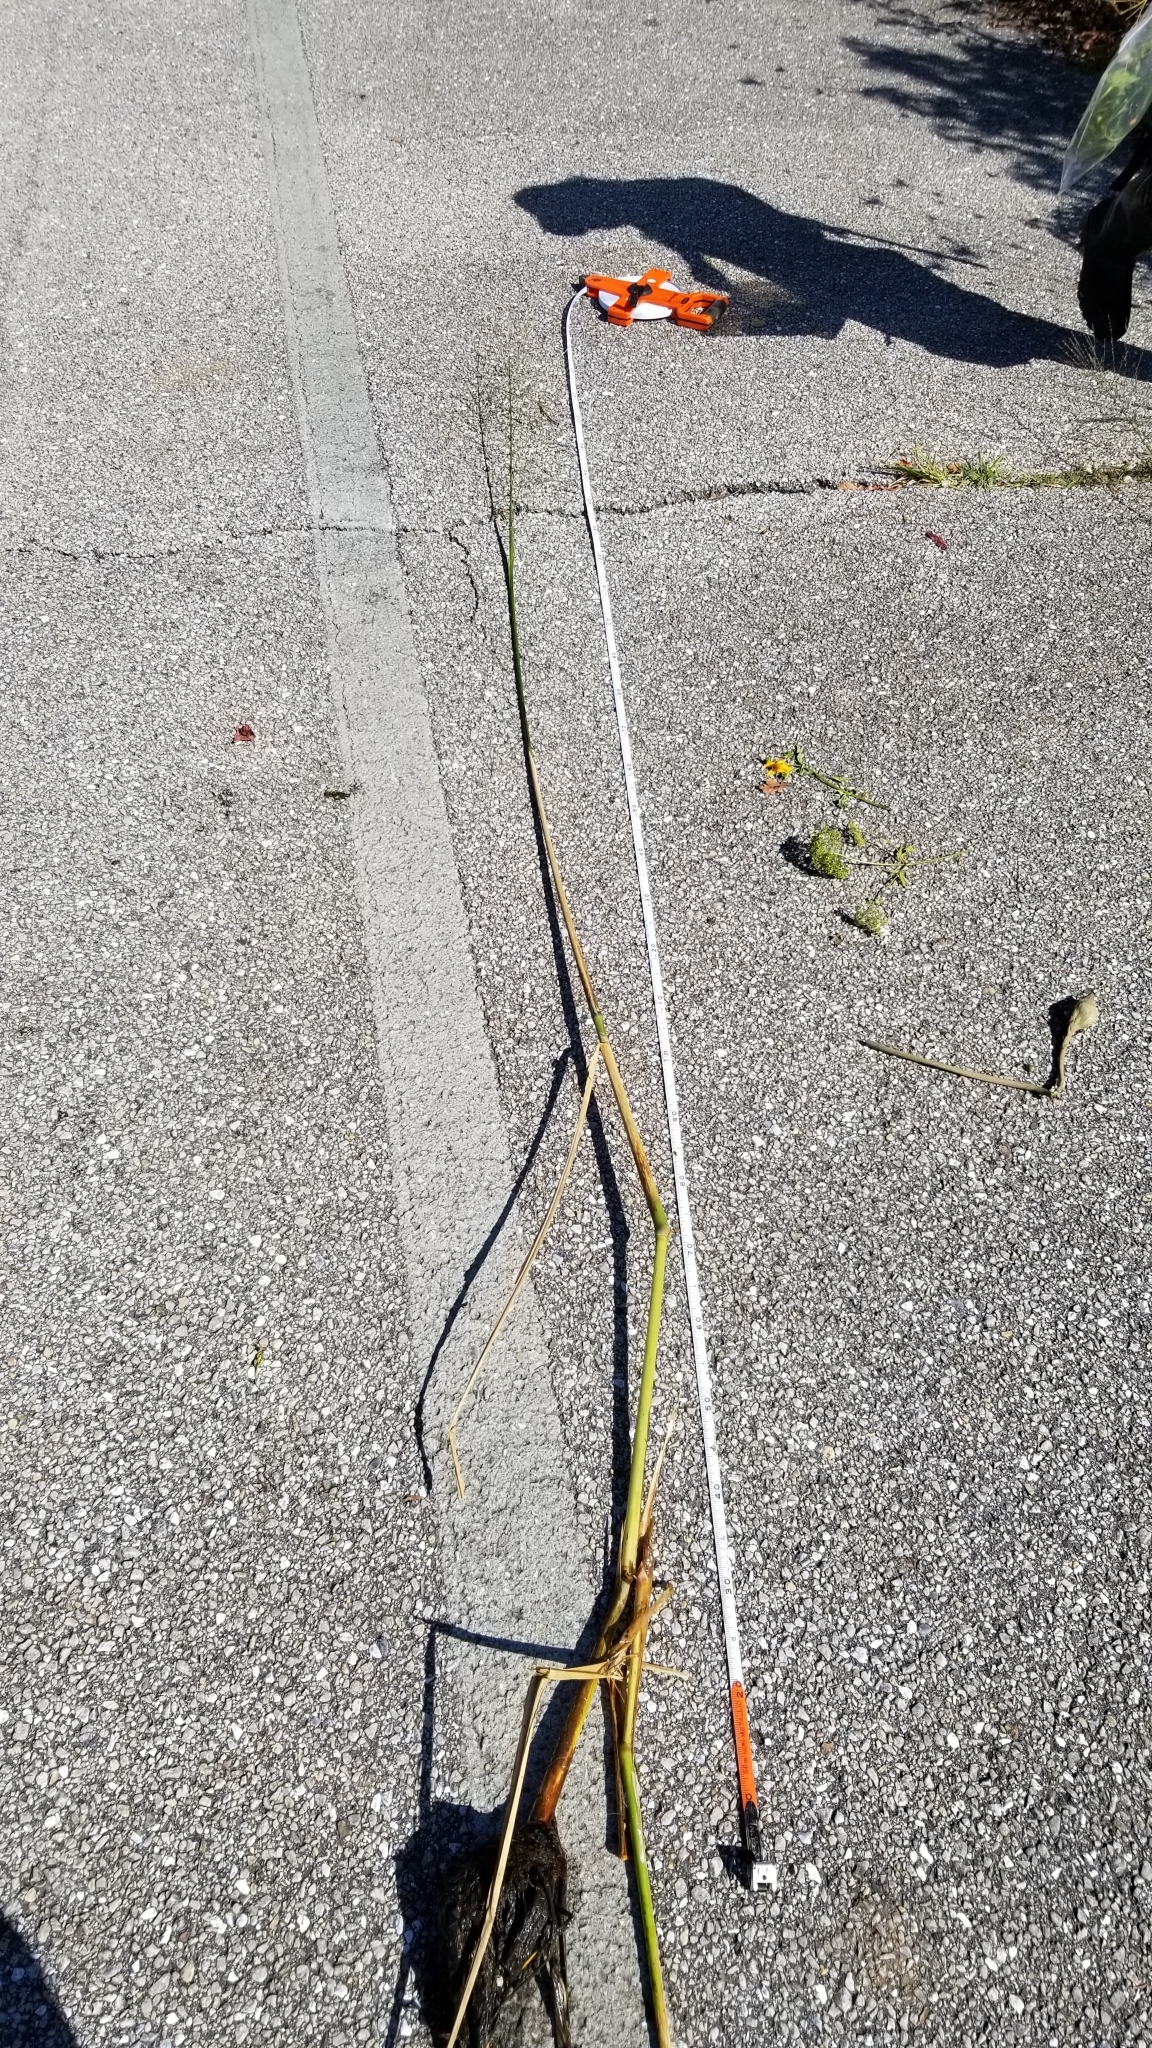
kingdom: Plantae
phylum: Tracheophyta
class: Liliopsida
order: Poales
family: Poaceae
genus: Zizania
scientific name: Zizania aquatica
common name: Annual wildrice
